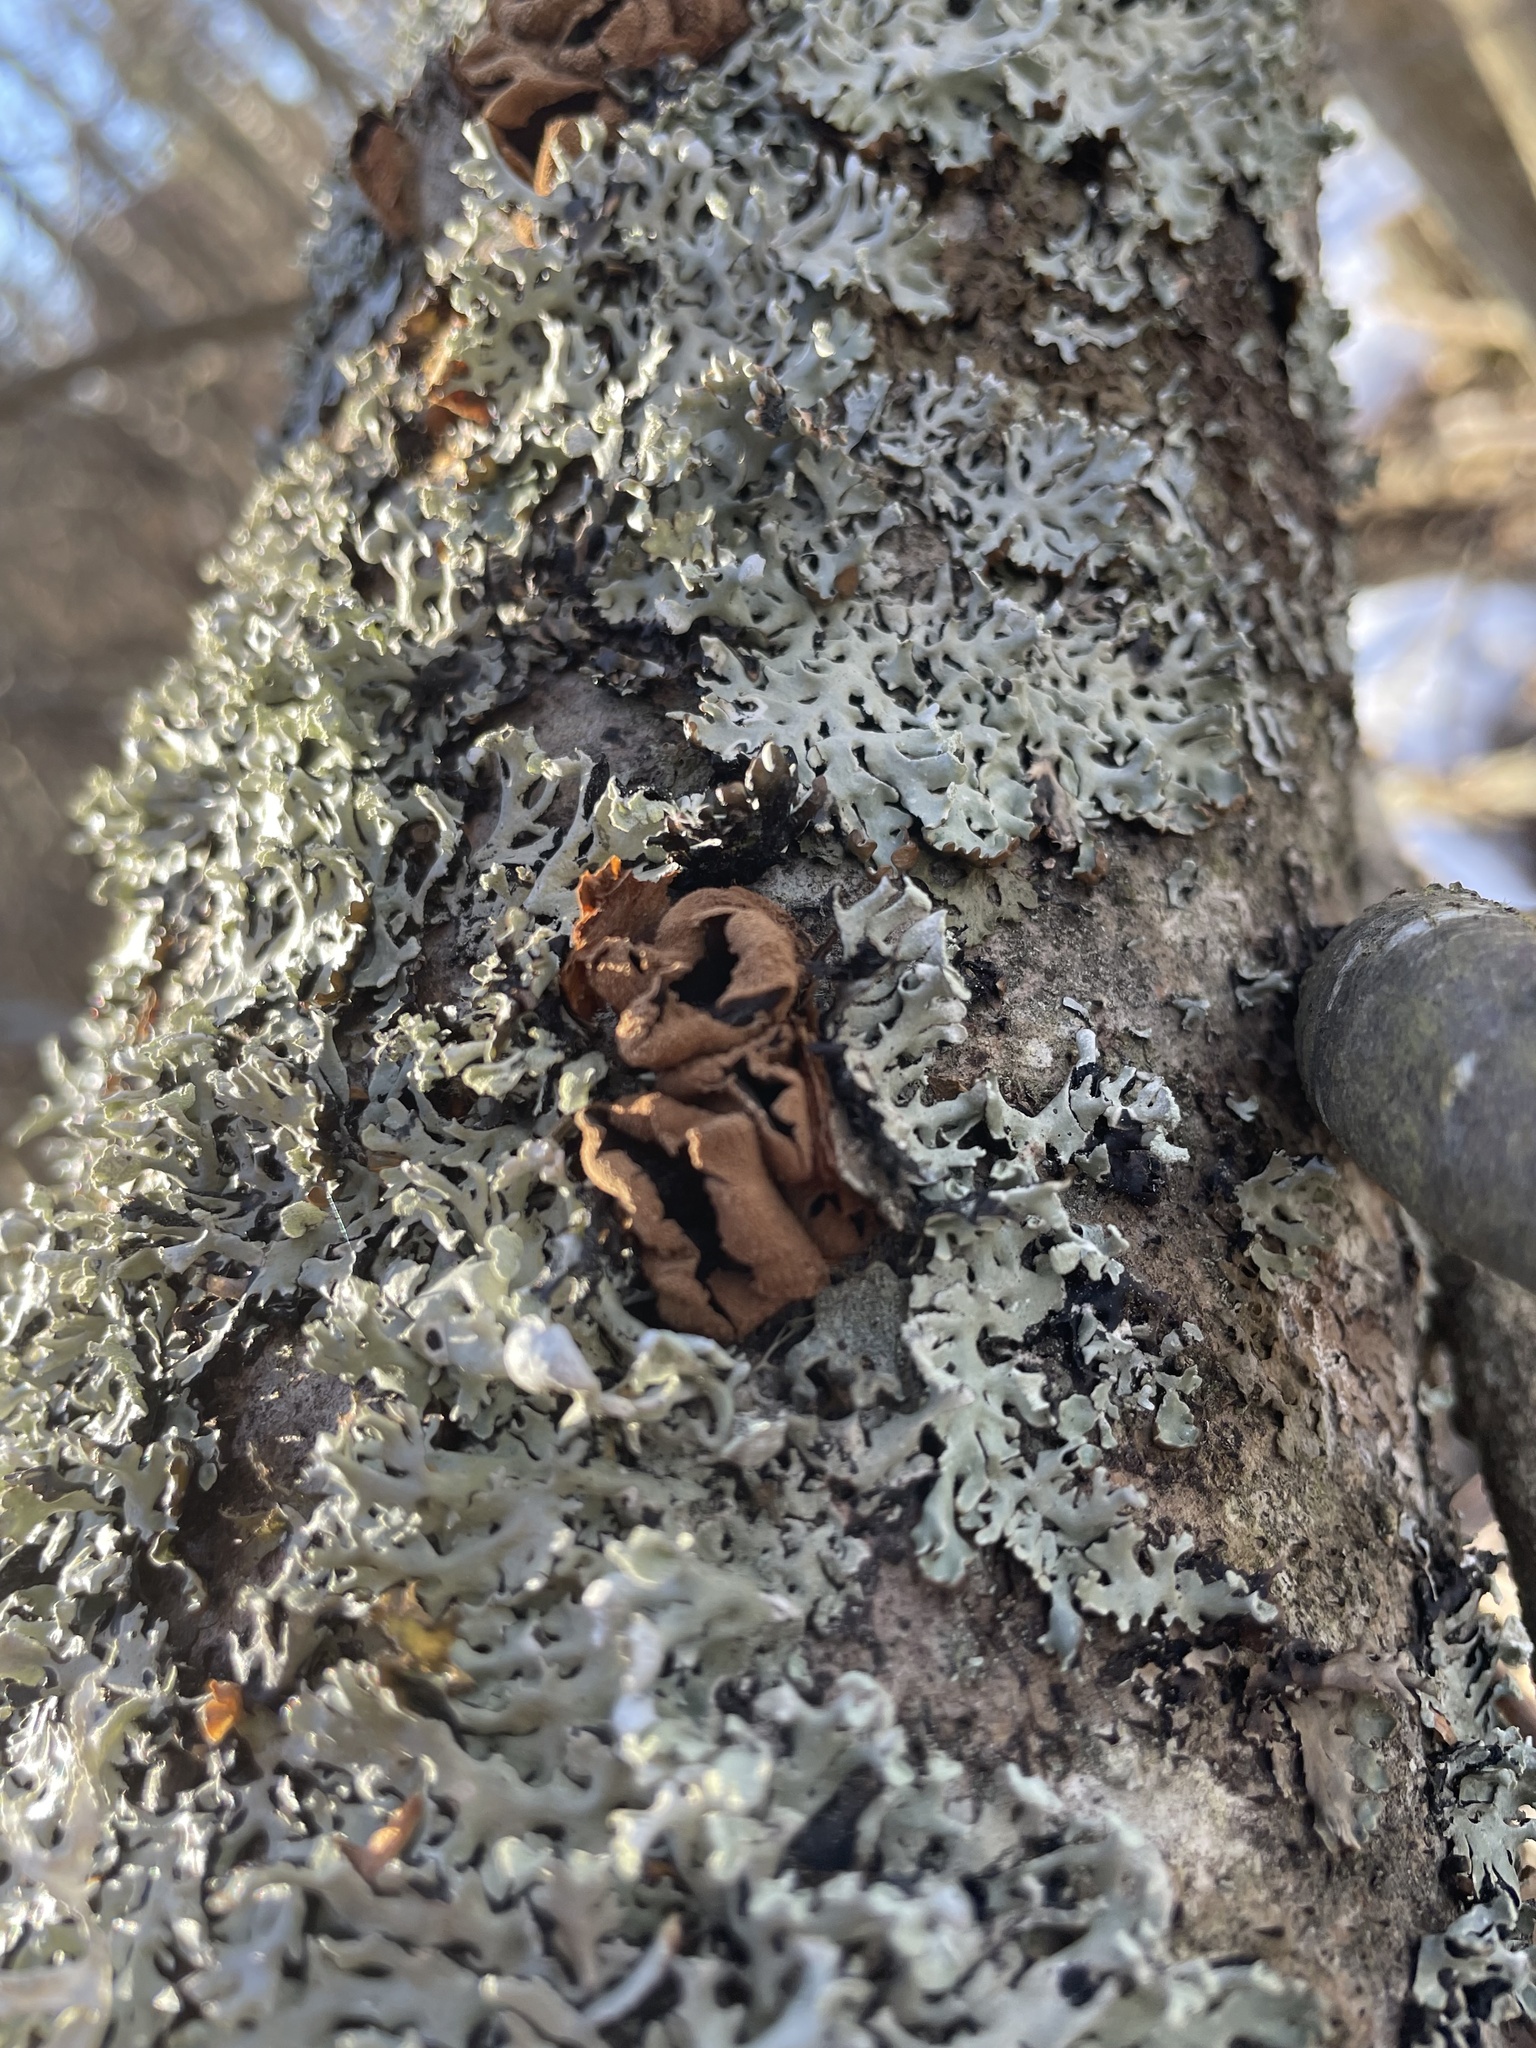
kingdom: Fungi
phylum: Ascomycota
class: Leotiomycetes
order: Helotiales
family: Cenangiaceae
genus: Encoelia
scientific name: Encoelia furfuracea
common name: Spring hazelcup
